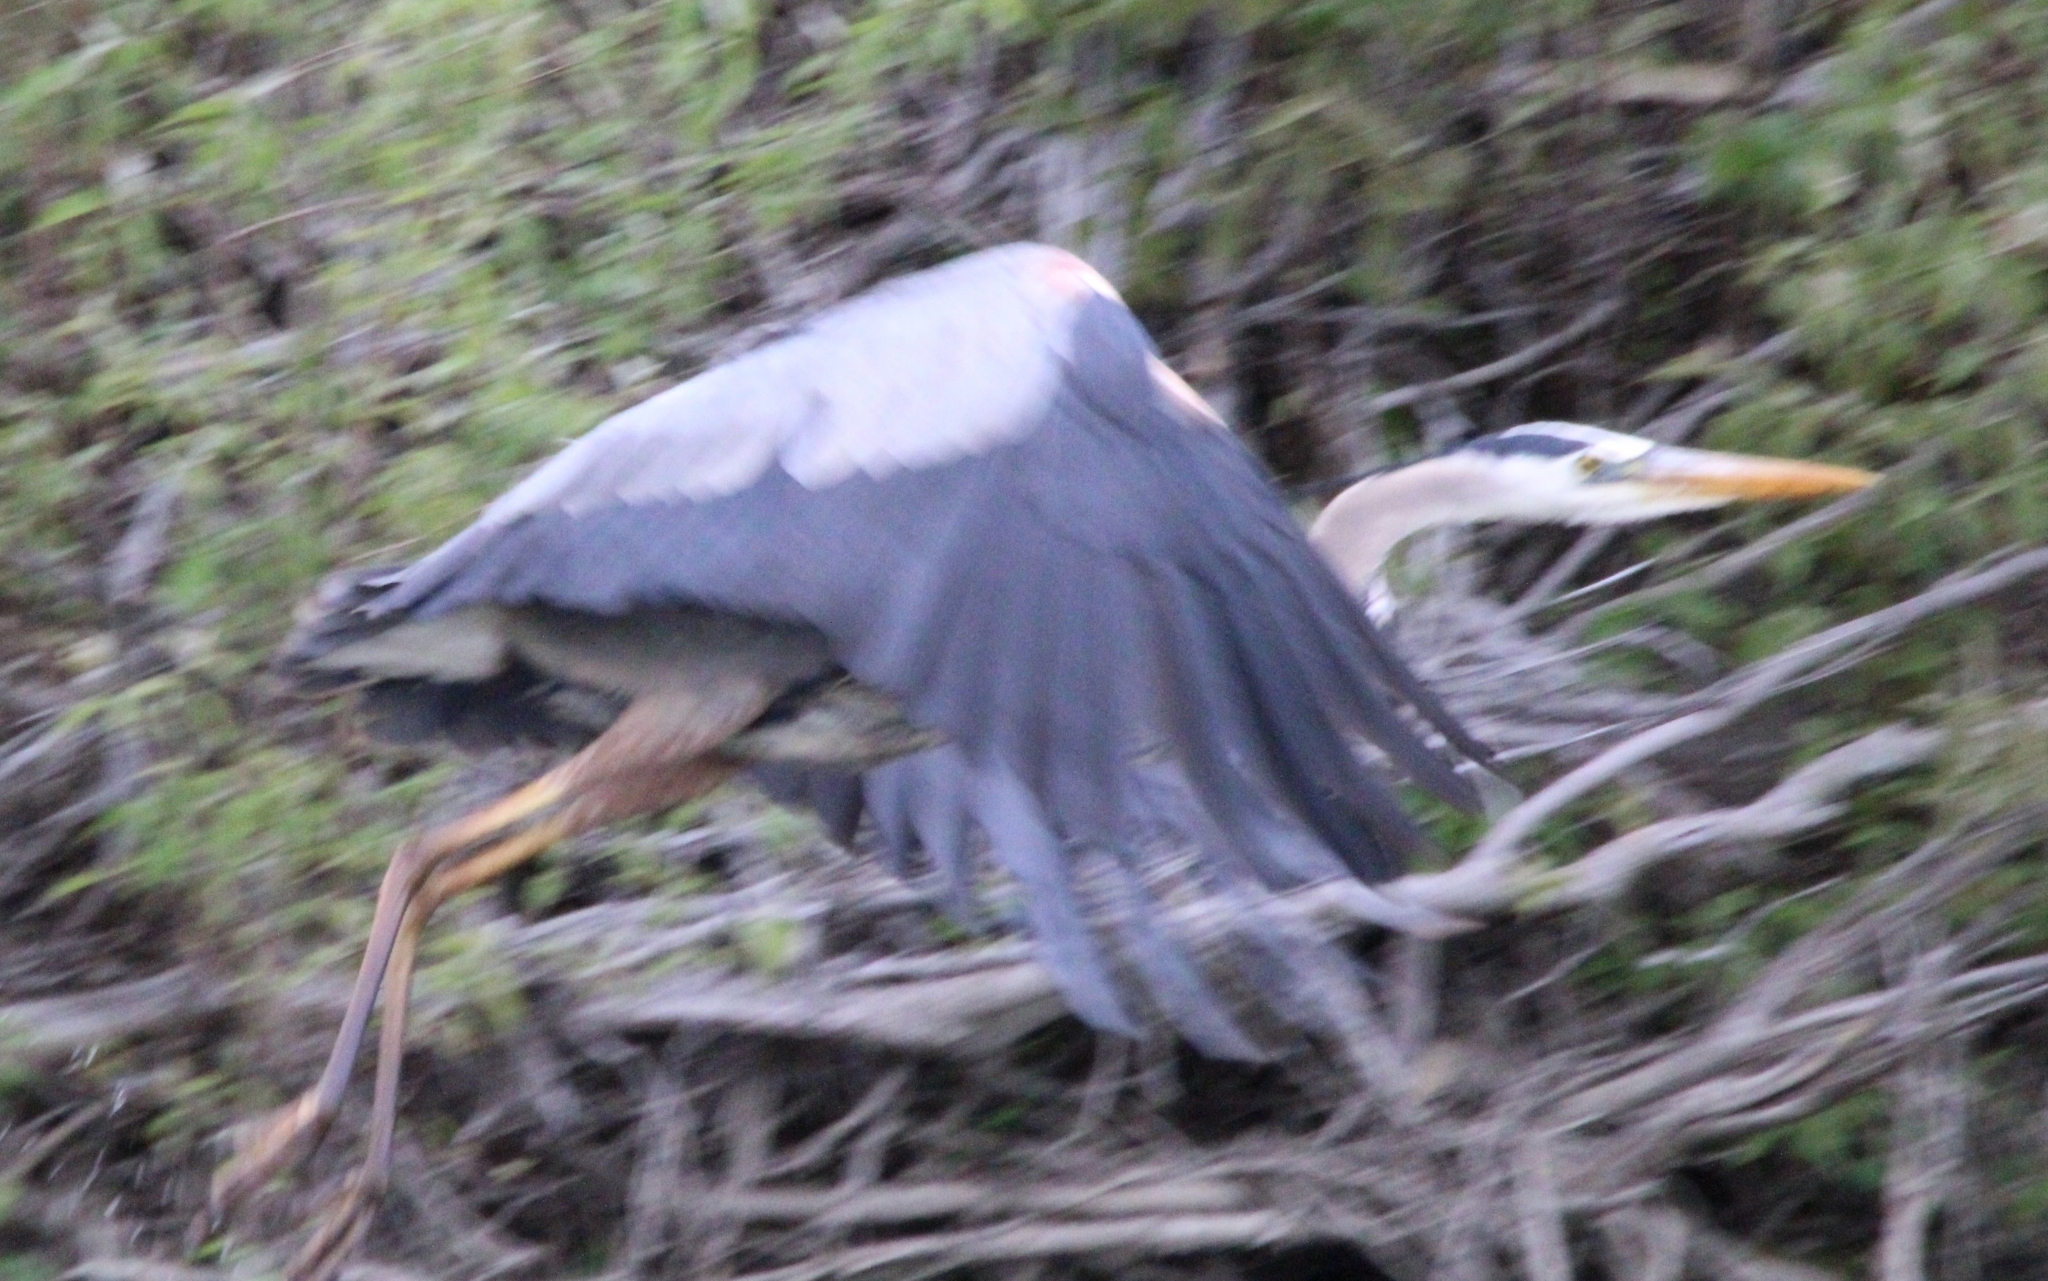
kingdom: Animalia
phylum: Chordata
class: Aves
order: Pelecaniformes
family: Ardeidae
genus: Ardea
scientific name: Ardea herodias
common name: Great blue heron
